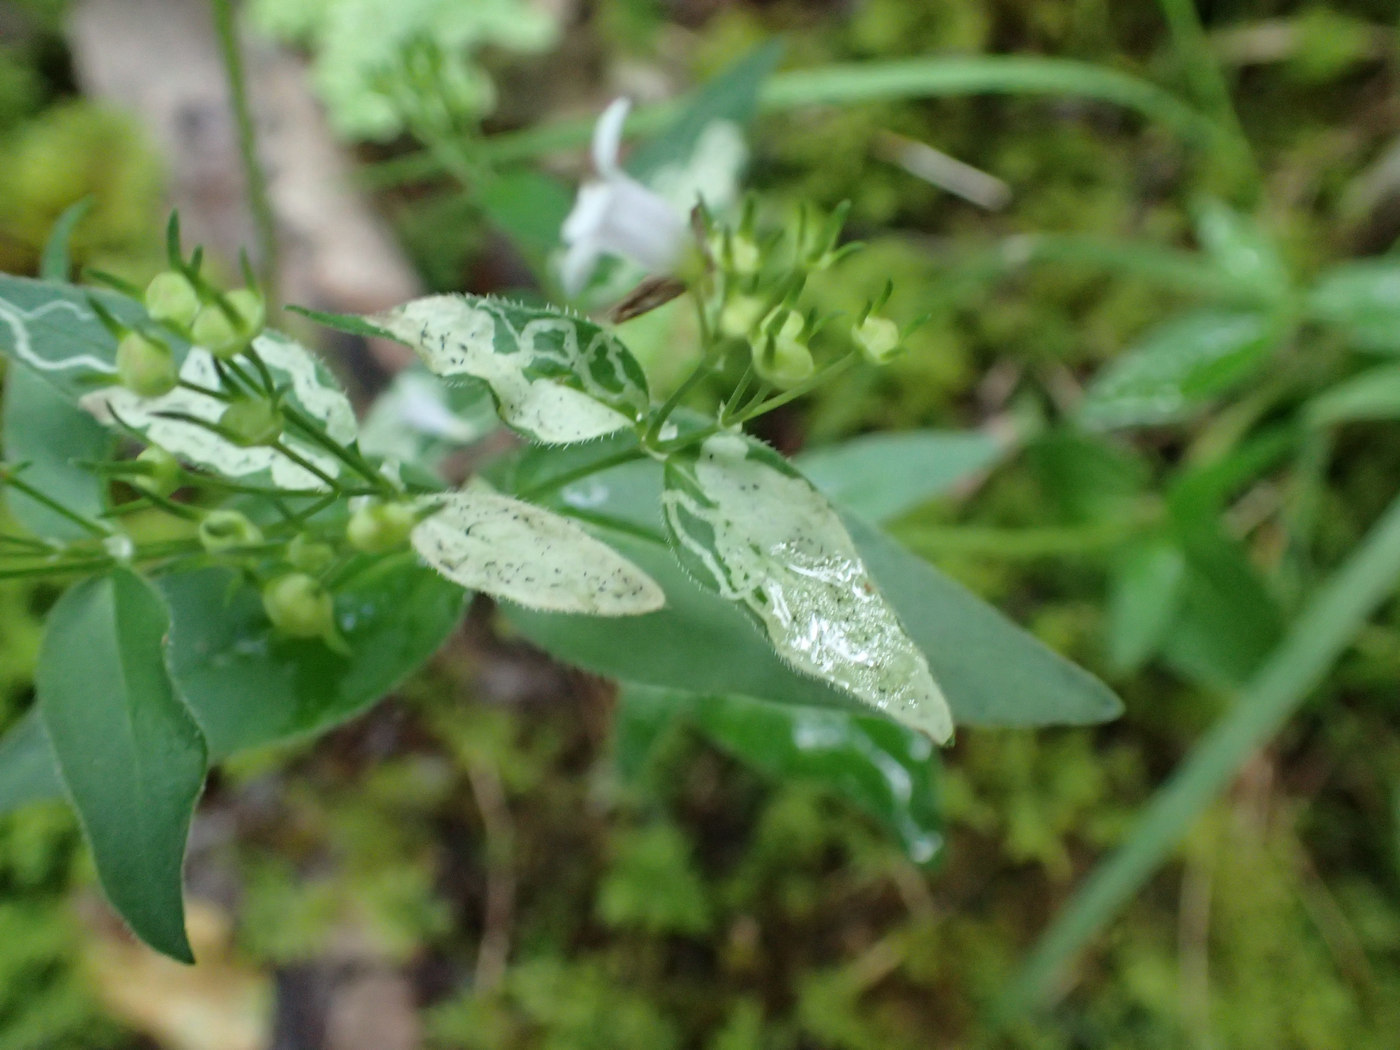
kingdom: Animalia
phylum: Arthropoda
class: Insecta
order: Diptera
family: Agromyzidae
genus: Liriomyza
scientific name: Liriomyza galiivora
